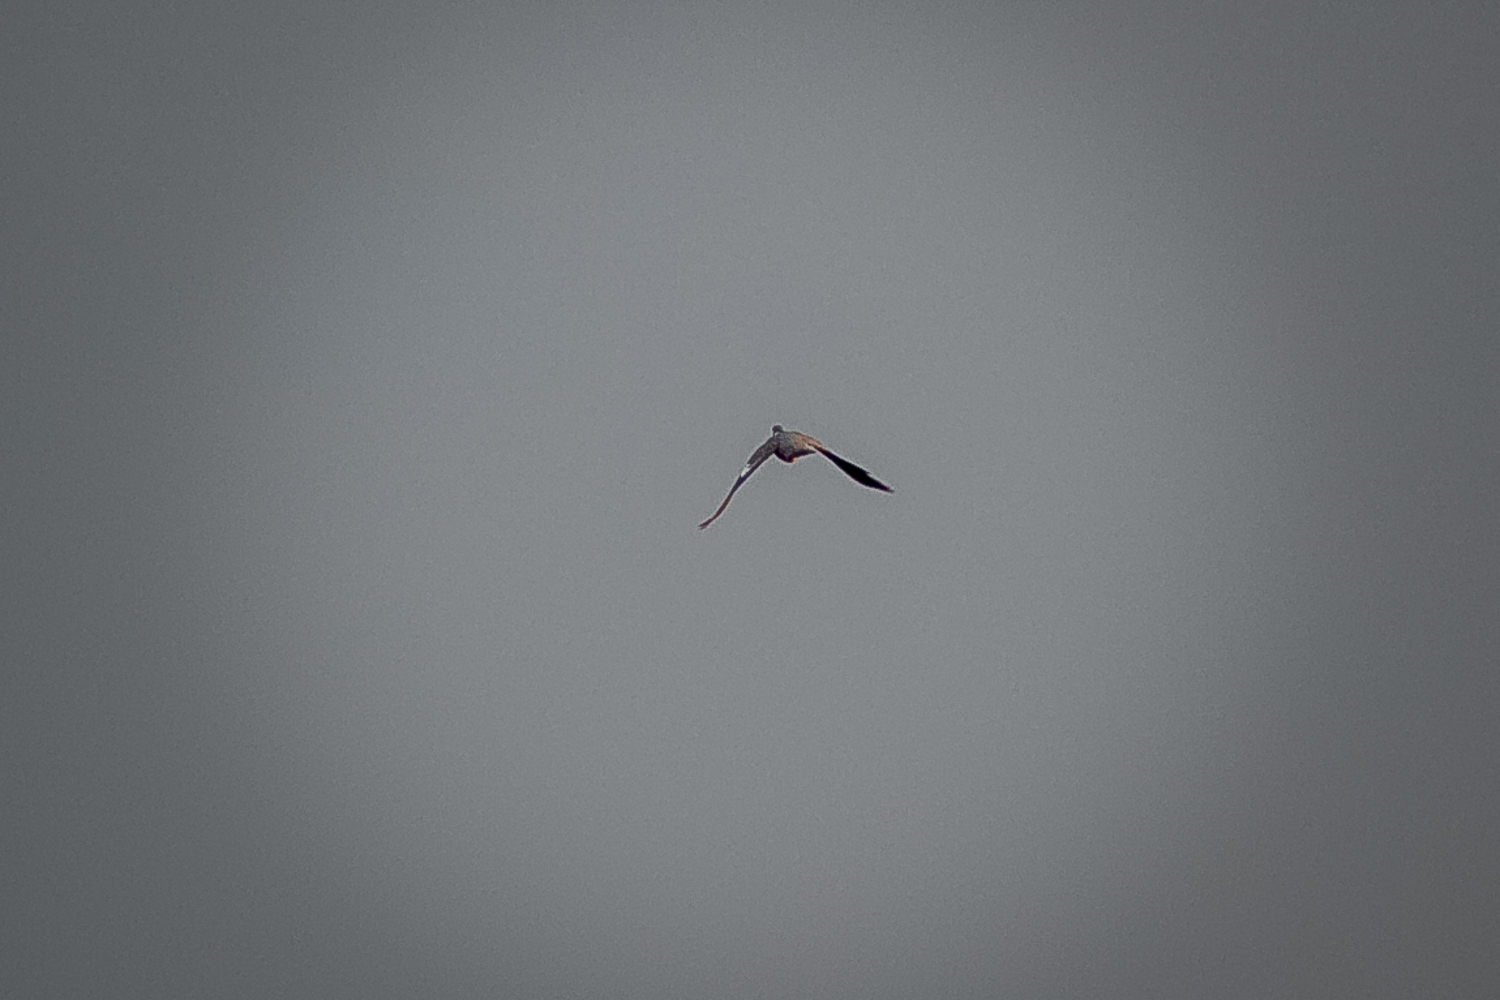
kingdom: Animalia
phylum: Chordata
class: Aves
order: Columbiformes
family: Columbidae
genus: Columba
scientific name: Columba palumbus
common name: Common wood pigeon
